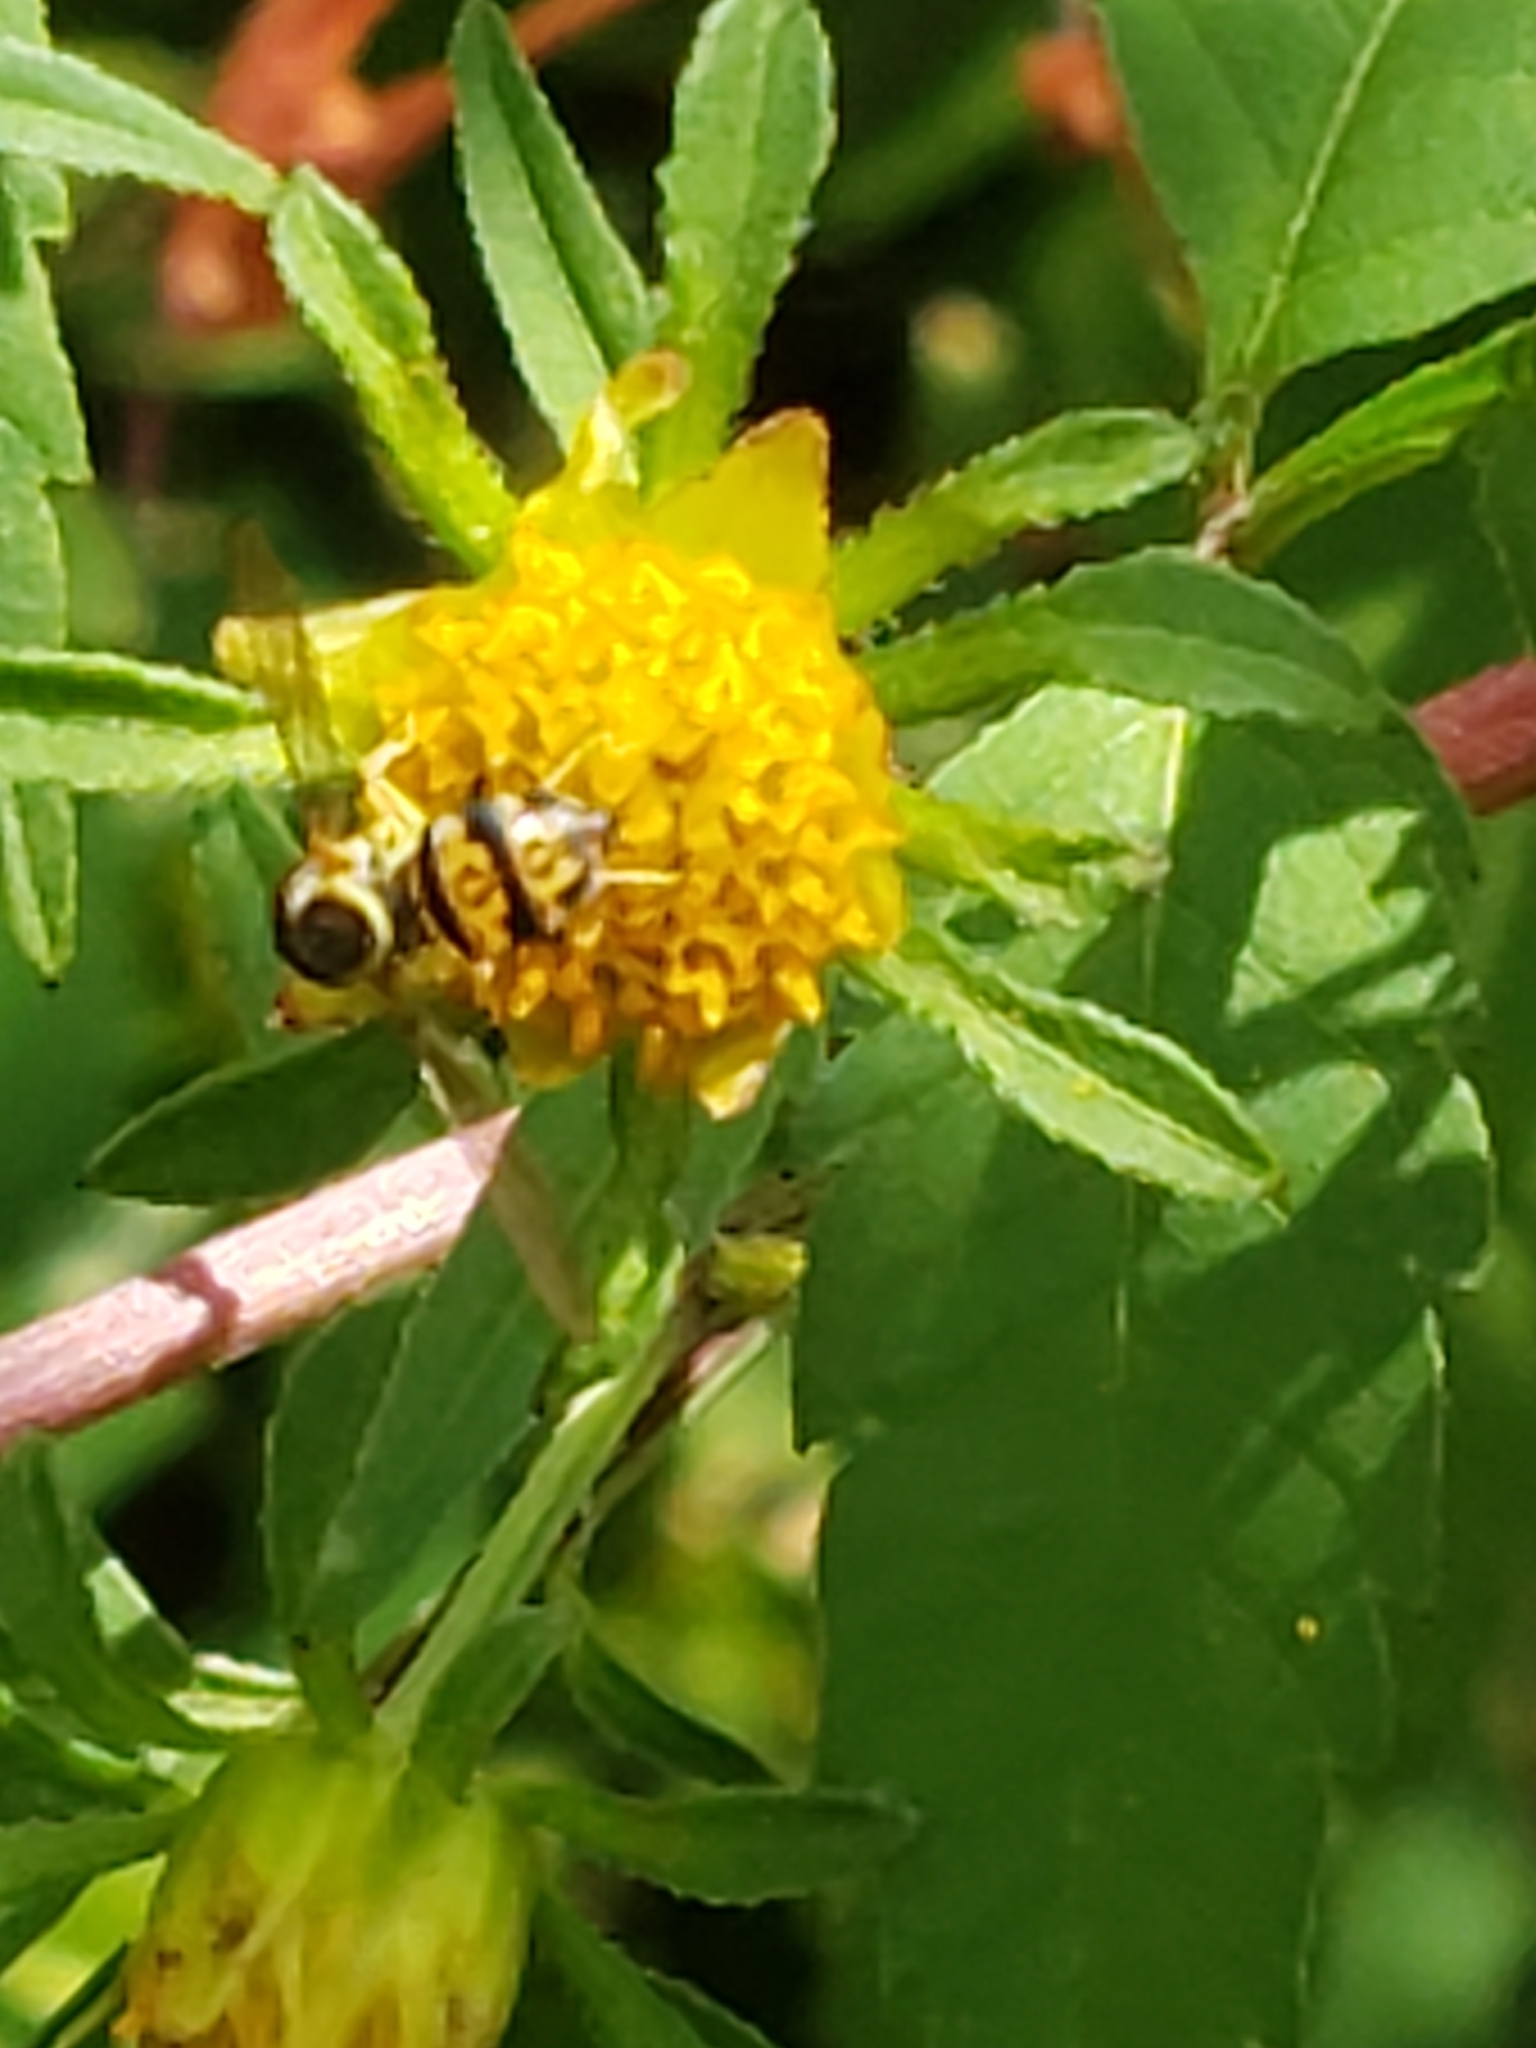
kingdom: Animalia
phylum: Arthropoda
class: Insecta
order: Diptera
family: Syrphidae
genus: Toxomerus
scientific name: Toxomerus geminatus
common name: Eastern calligrapher
